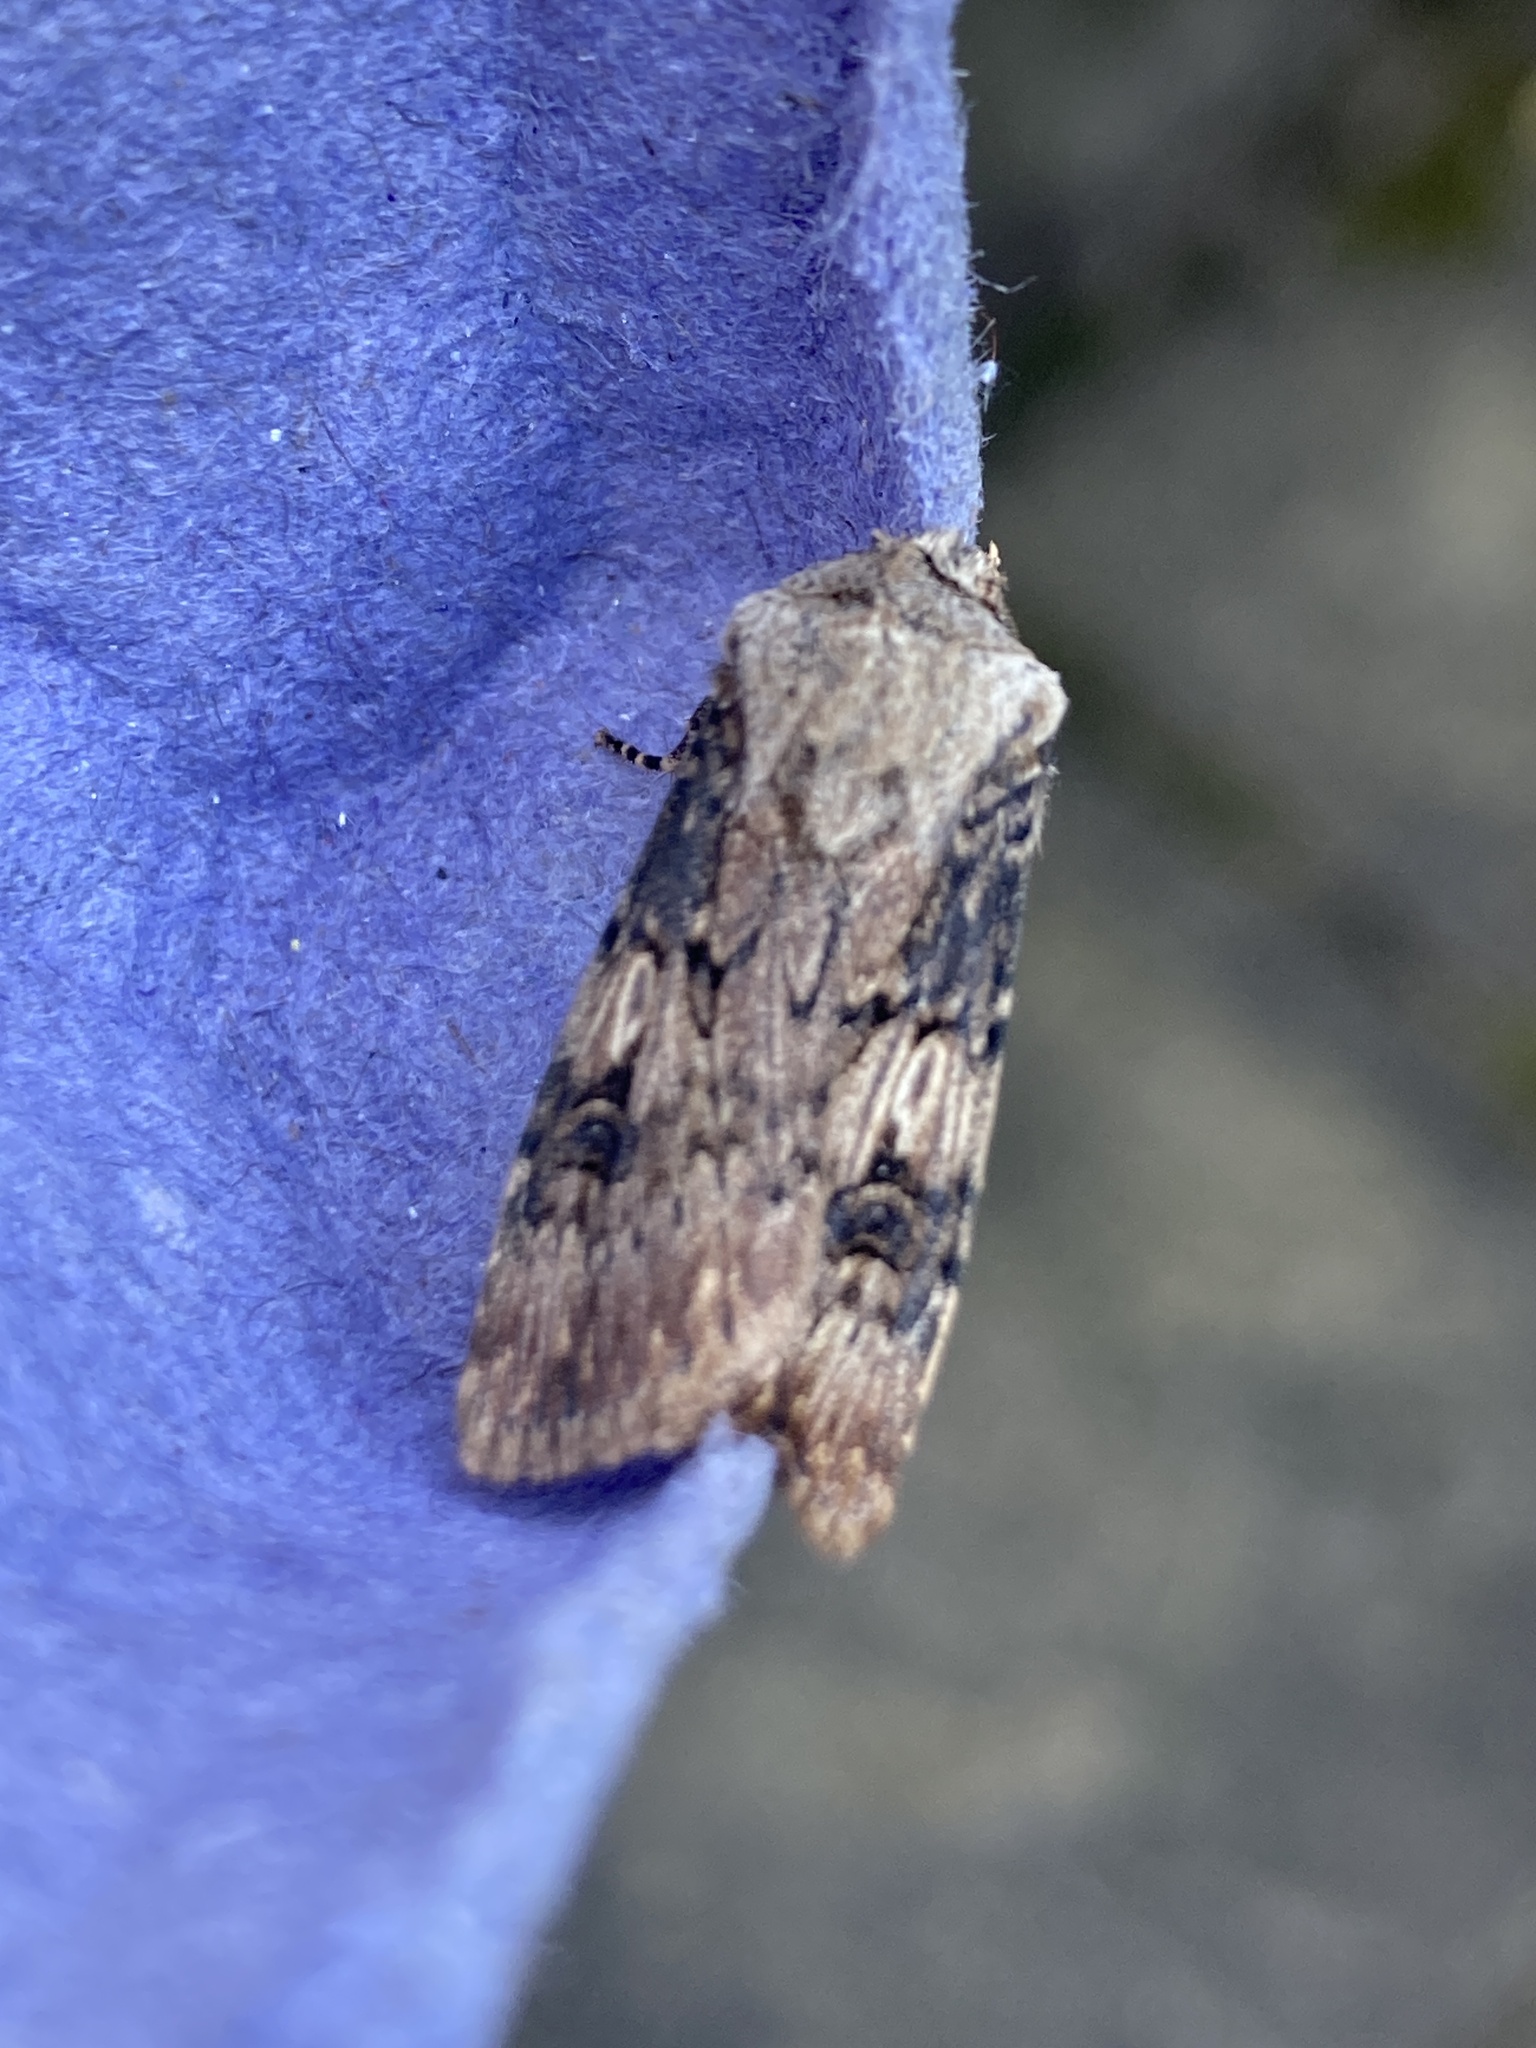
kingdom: Animalia
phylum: Arthropoda
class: Insecta
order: Lepidoptera
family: Noctuidae
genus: Agrotis
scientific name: Agrotis puta
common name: Shuttle-shaped dart
